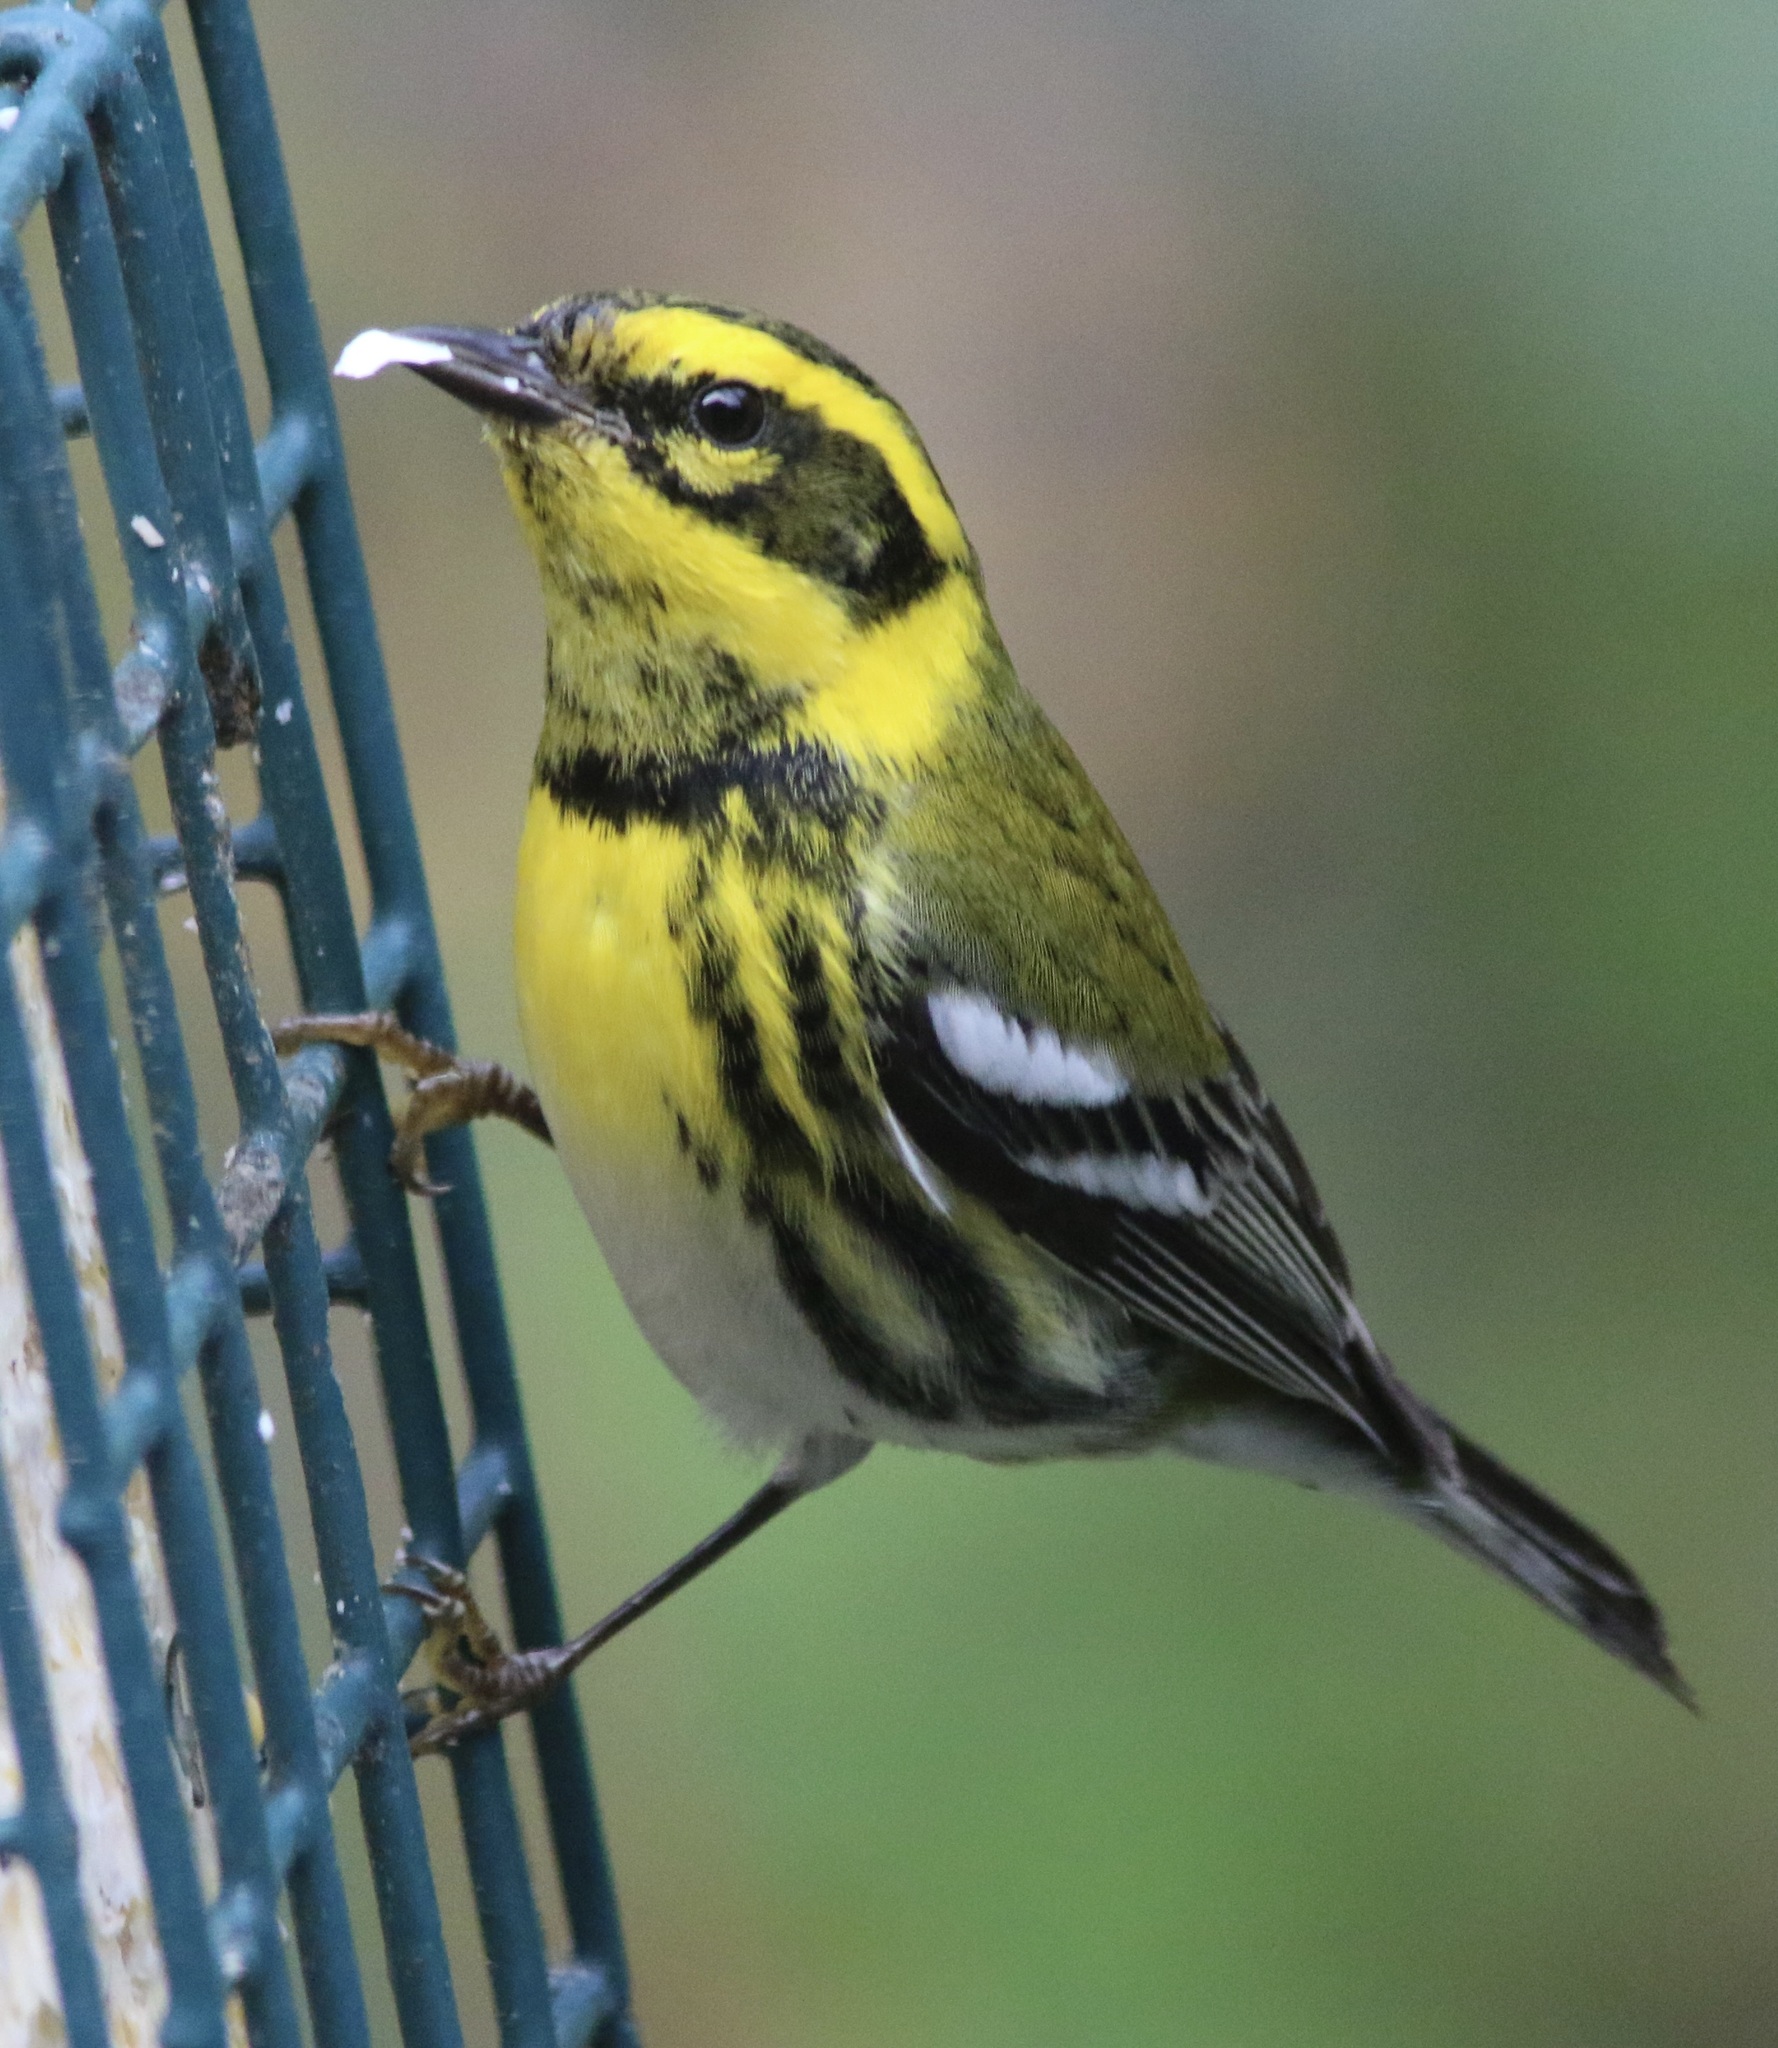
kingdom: Animalia
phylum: Chordata
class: Aves
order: Passeriformes
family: Parulidae
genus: Setophaga
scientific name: Setophaga townsendi
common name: Townsend's warbler
